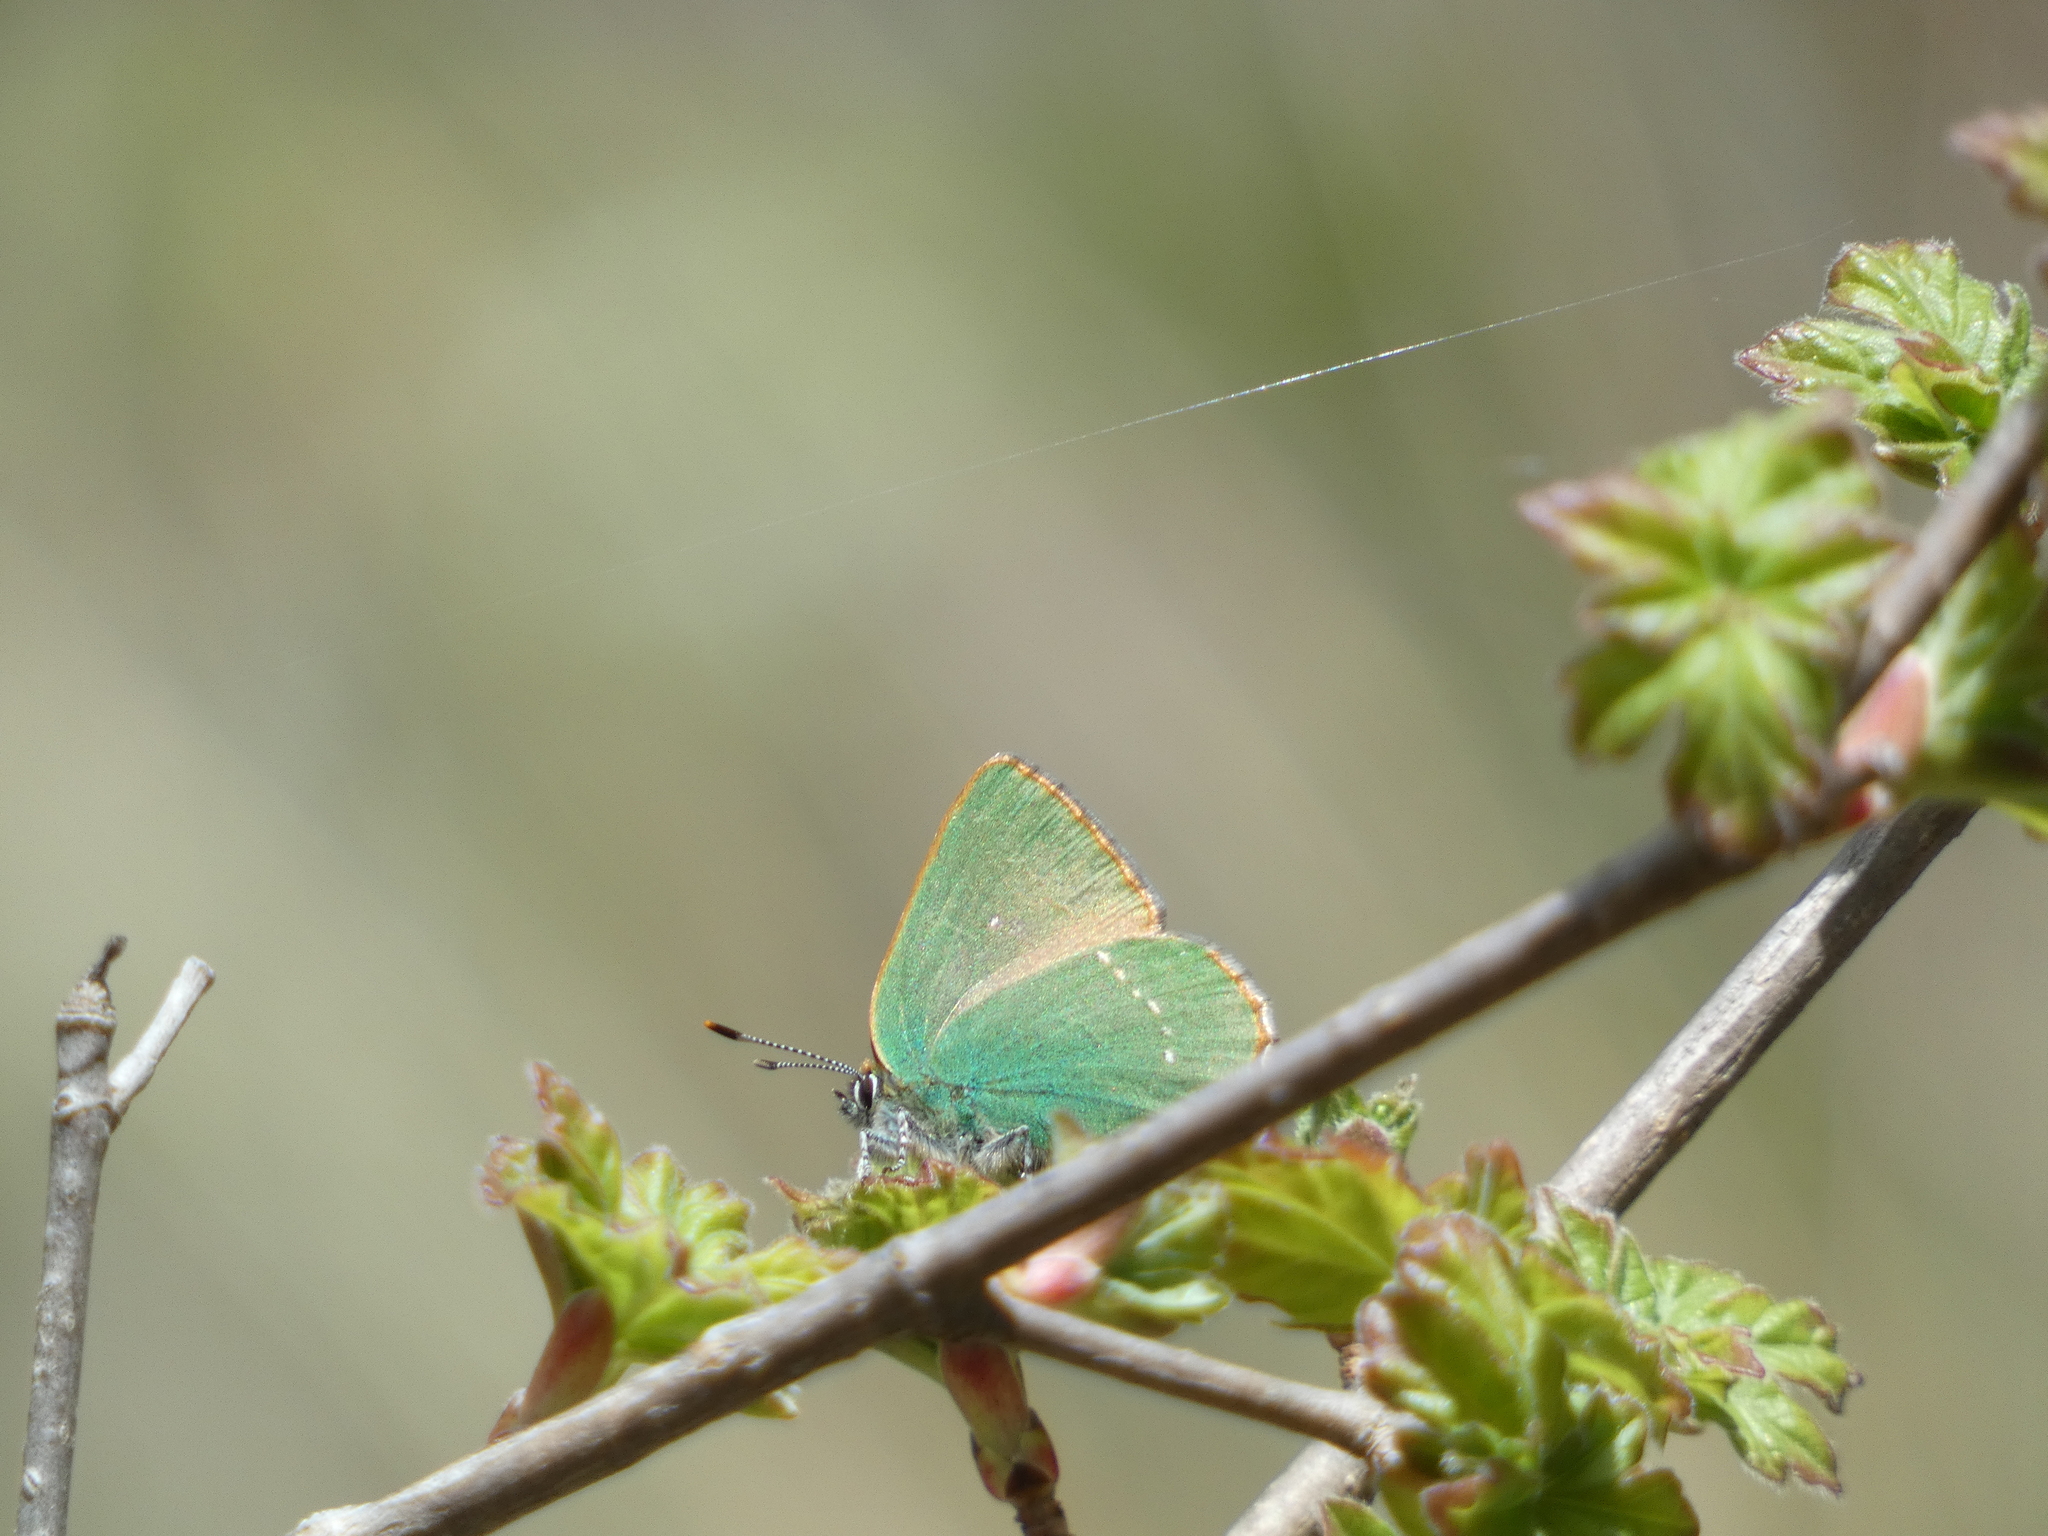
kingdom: Animalia
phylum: Arthropoda
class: Insecta
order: Lepidoptera
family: Lycaenidae
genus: Callophrys
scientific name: Callophrys rubi
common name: Green hairstreak
